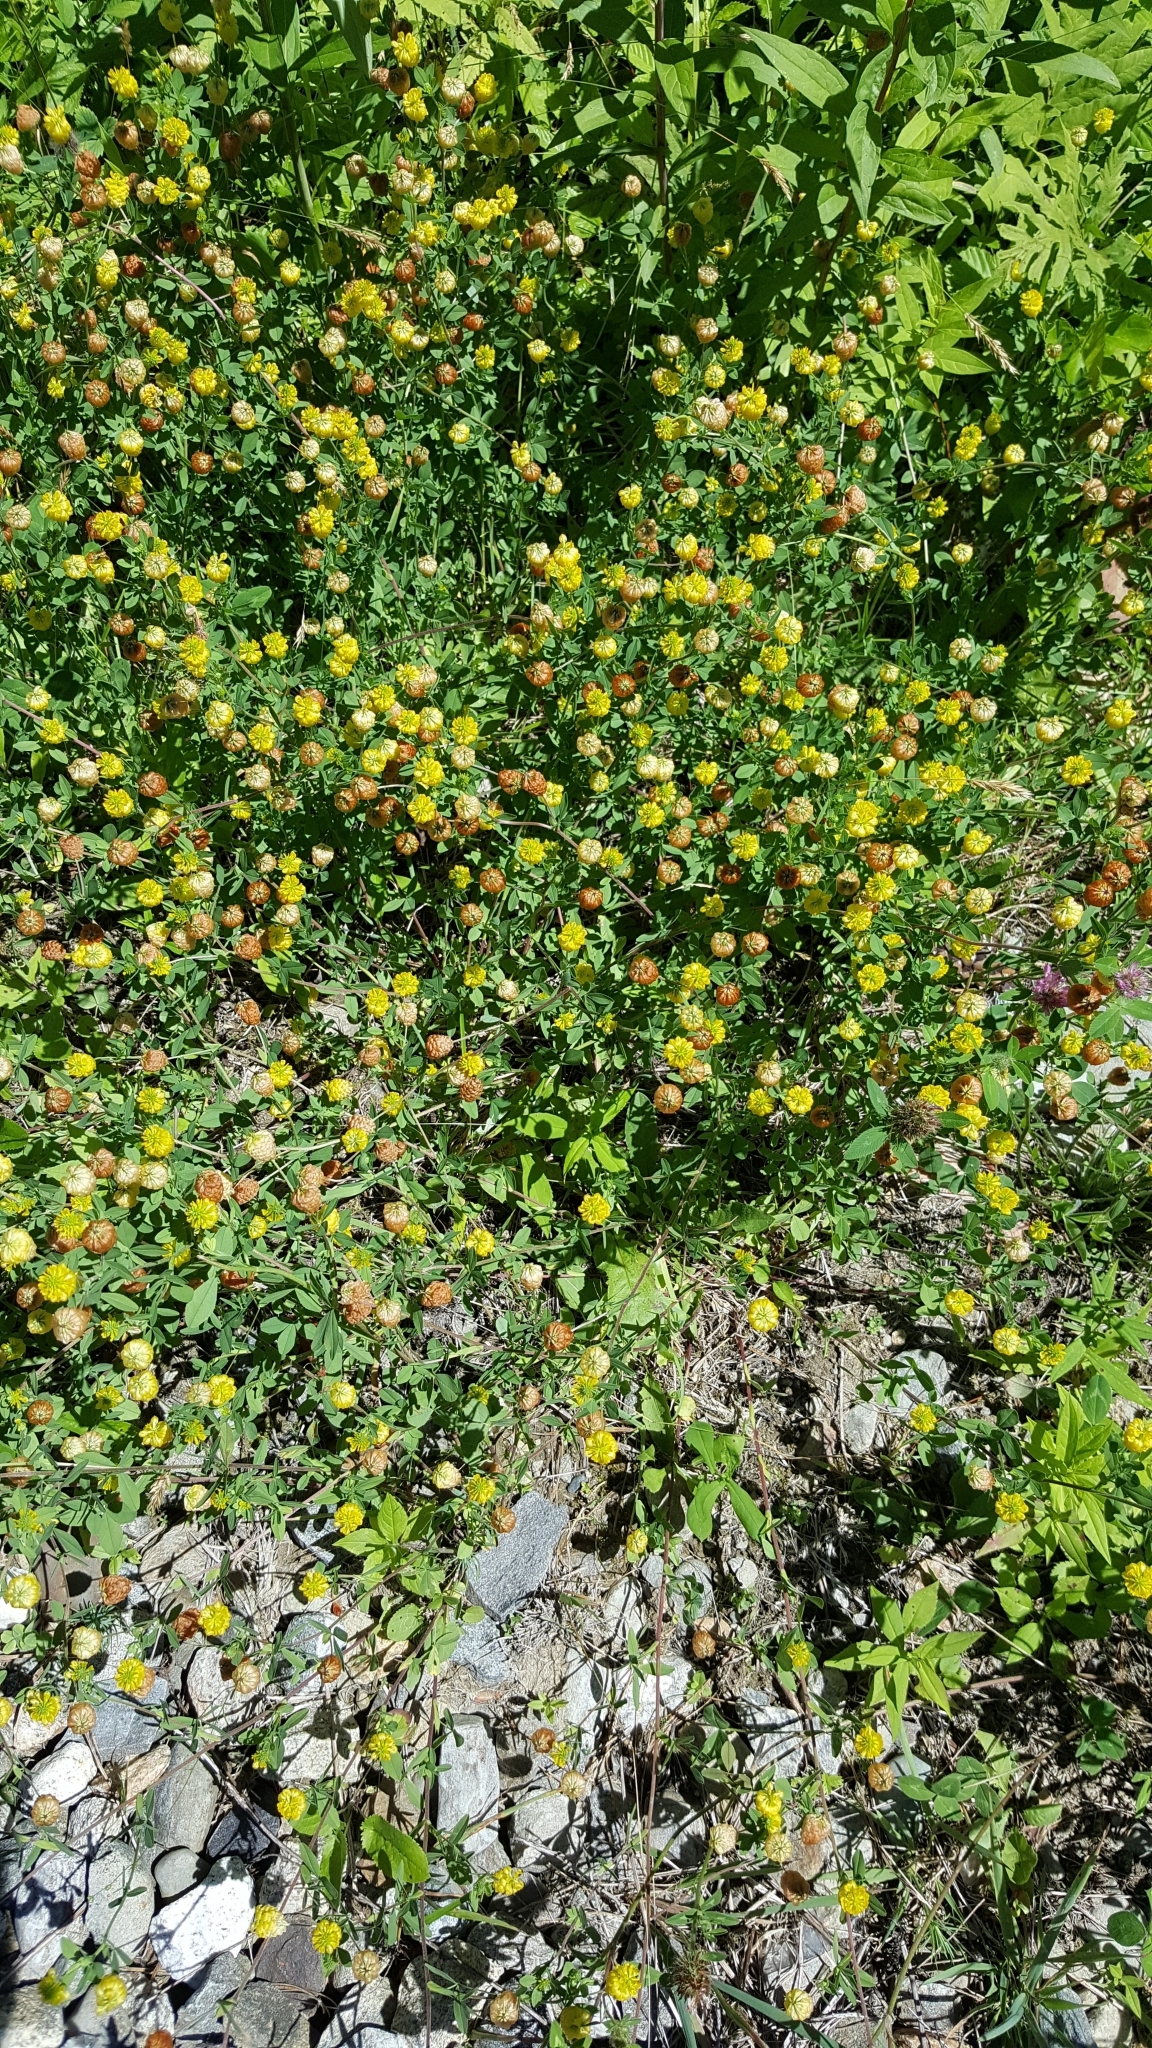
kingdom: Plantae
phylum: Tracheophyta
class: Magnoliopsida
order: Fabales
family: Fabaceae
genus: Trifolium
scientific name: Trifolium aureum
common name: Golden clover
